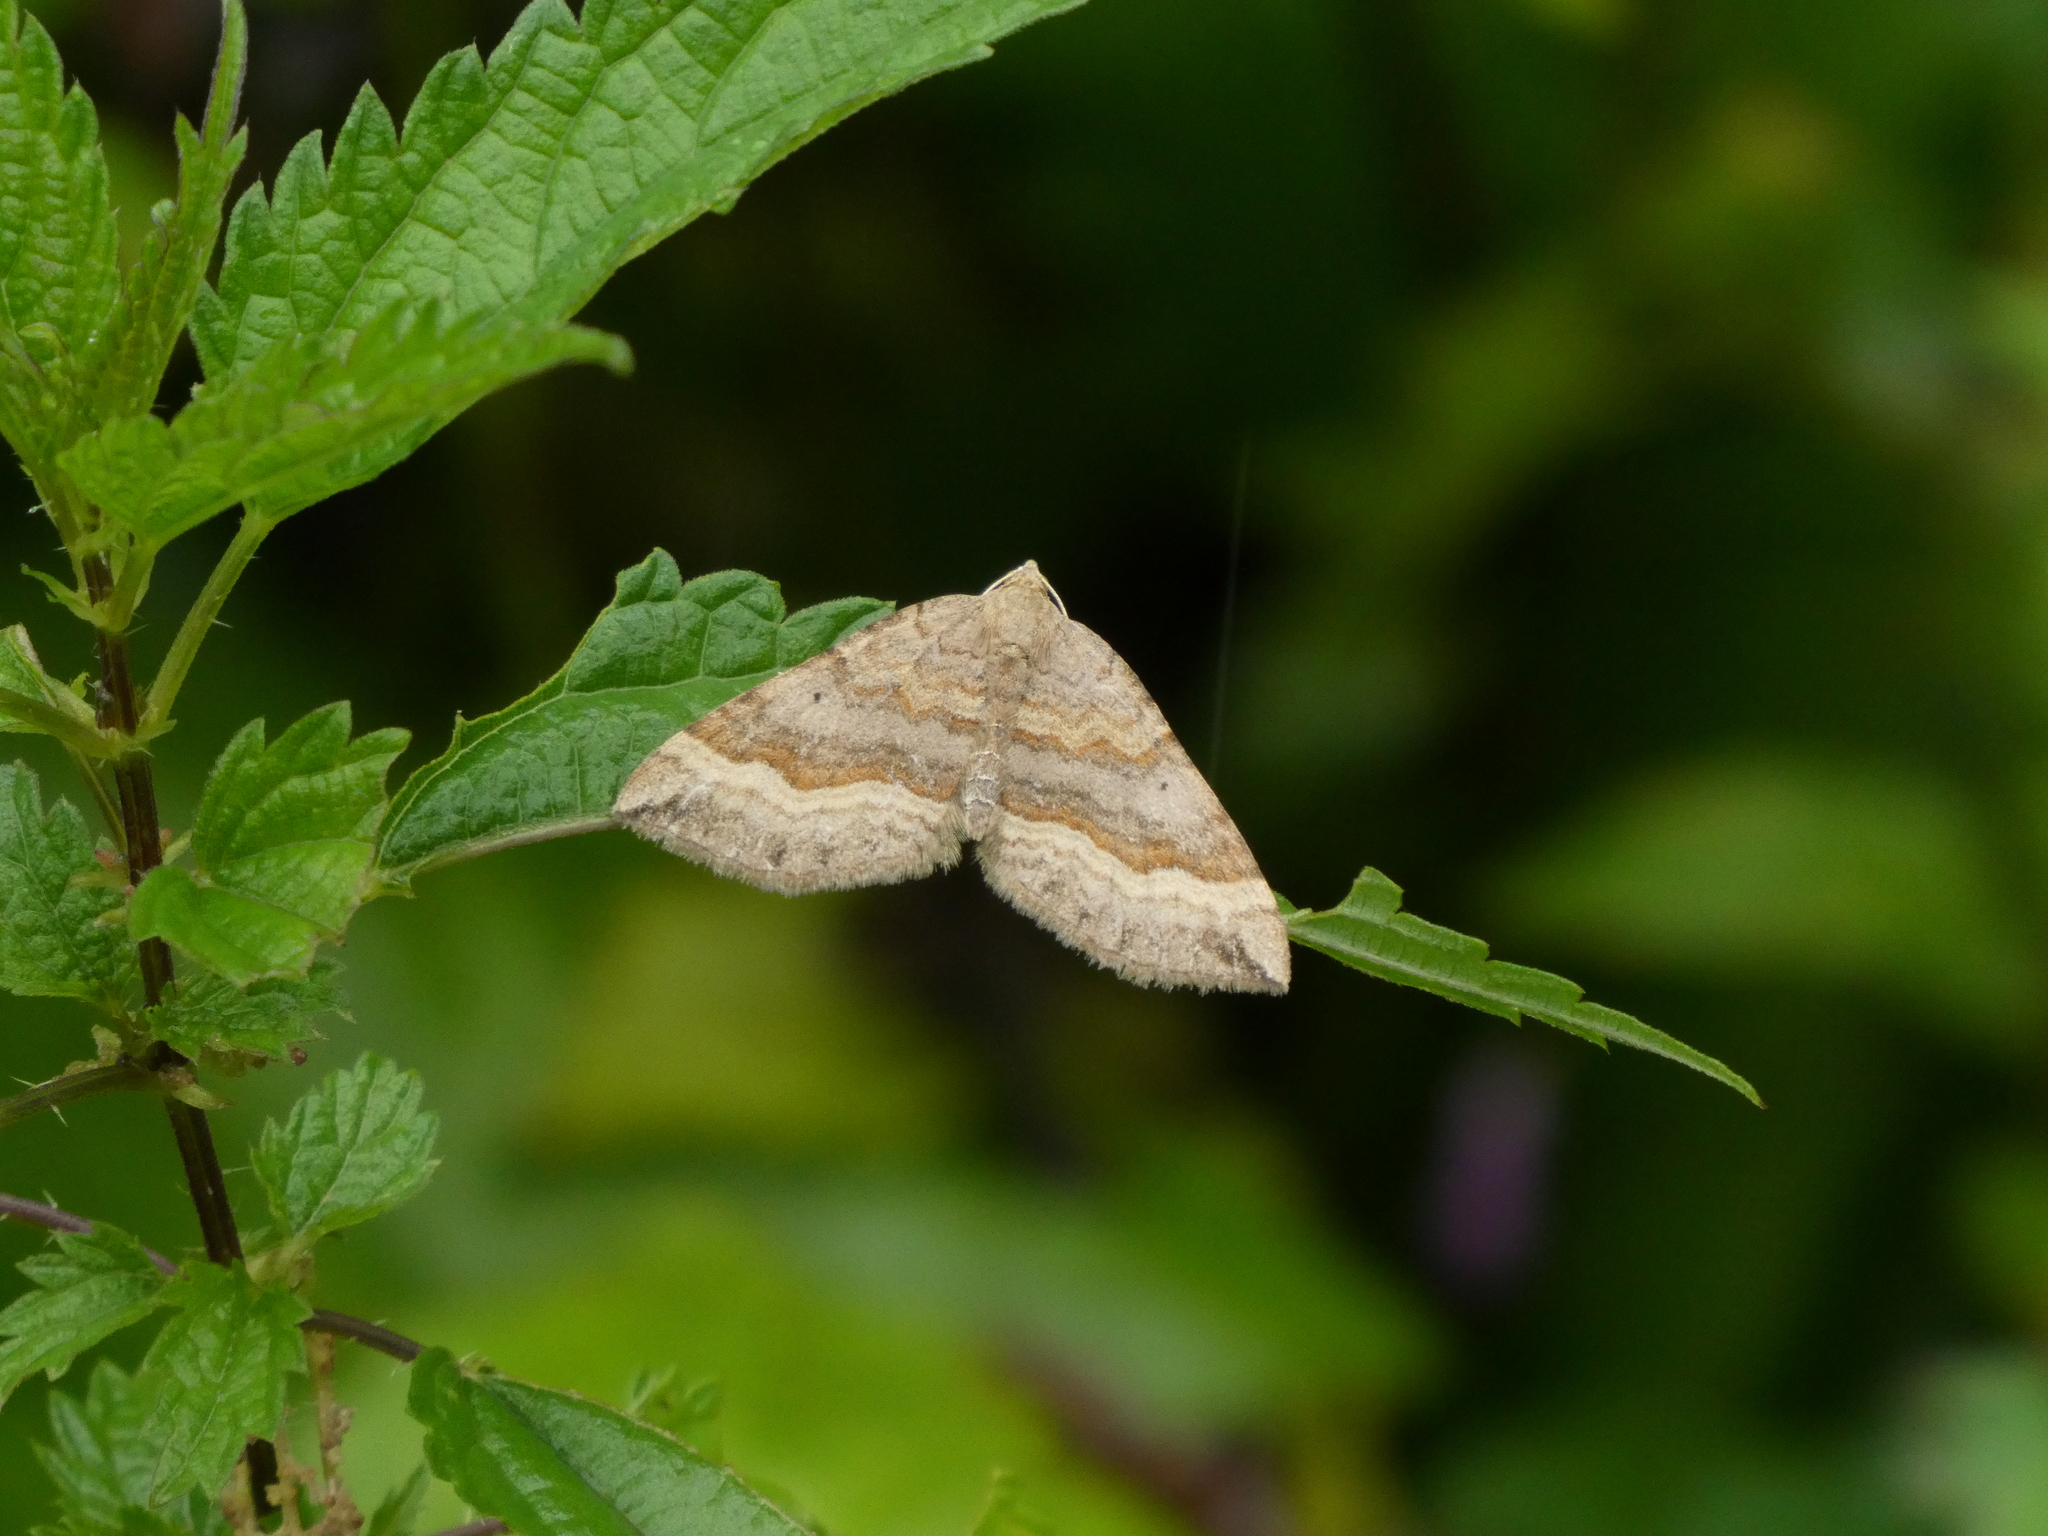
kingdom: Animalia
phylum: Arthropoda
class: Insecta
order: Lepidoptera
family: Geometridae
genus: Scotopteryx
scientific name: Scotopteryx chenopodiata
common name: Shaded broad-bar
